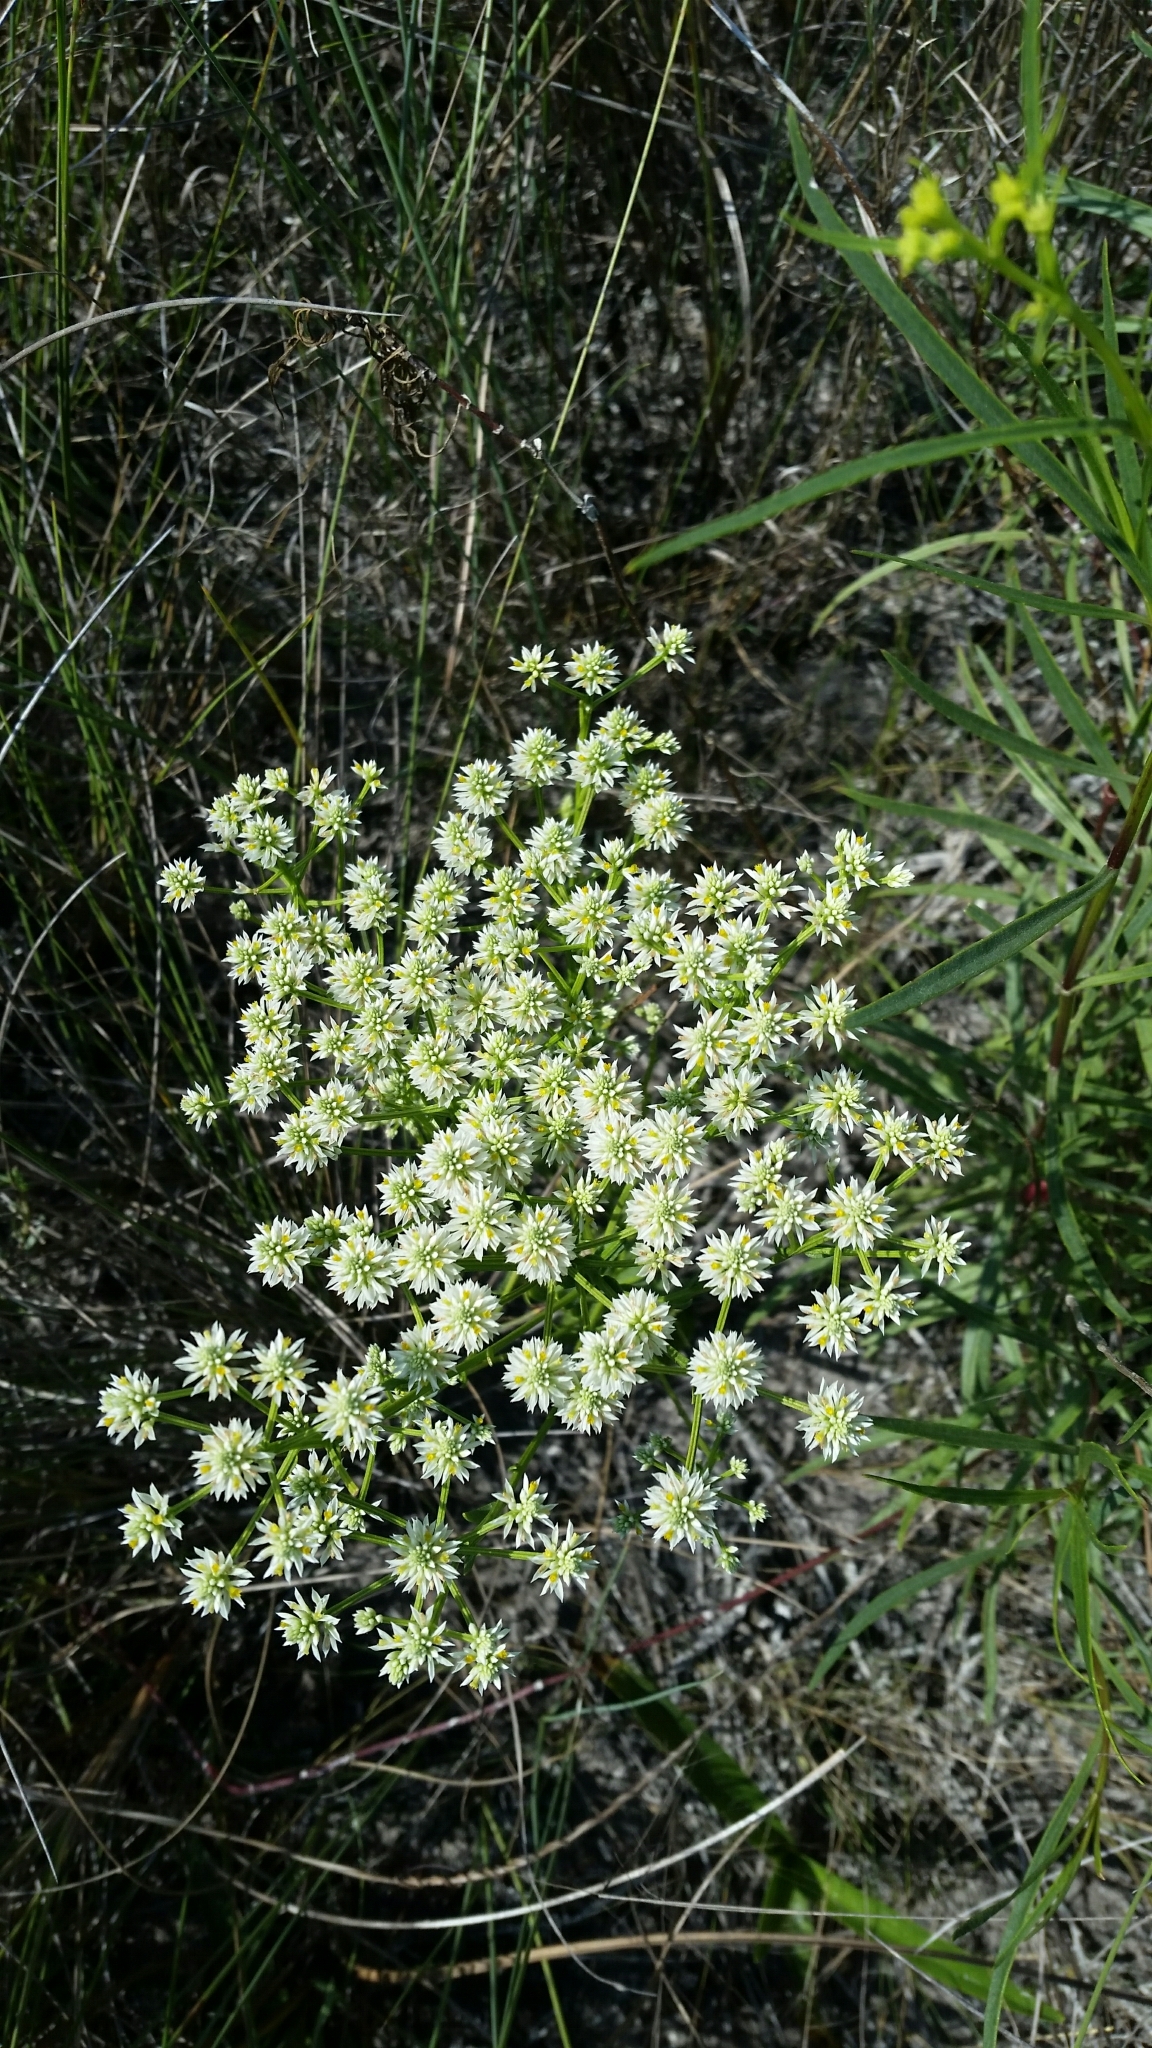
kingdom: Plantae
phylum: Tracheophyta
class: Magnoliopsida
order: Fabales
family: Polygalaceae
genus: Polygala
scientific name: Polygala baldwinii
